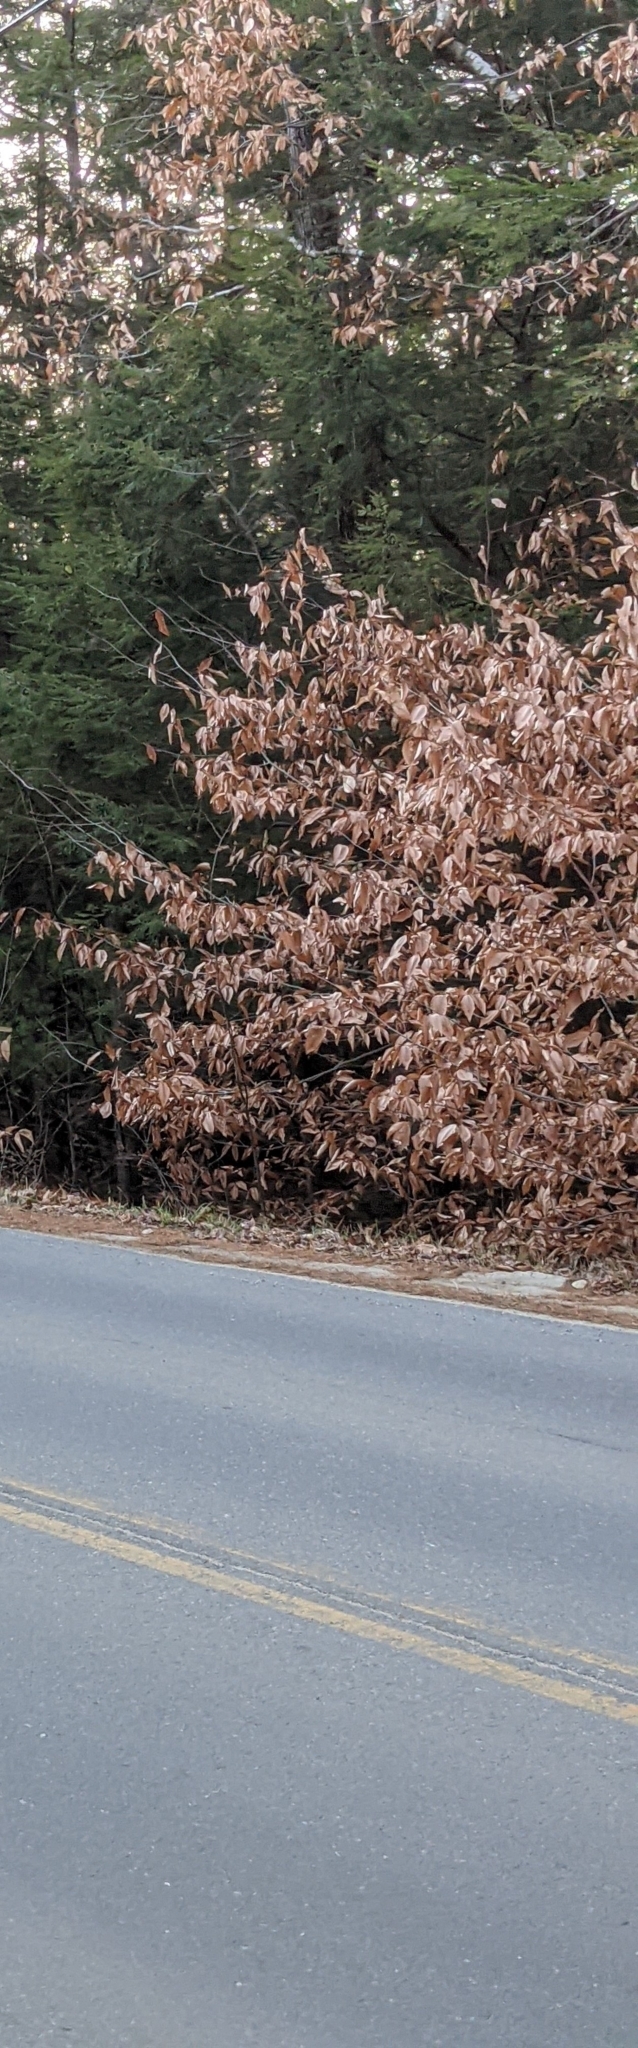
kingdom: Plantae
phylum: Tracheophyta
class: Magnoliopsida
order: Fagales
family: Fagaceae
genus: Fagus
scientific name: Fagus grandifolia
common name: American beech
